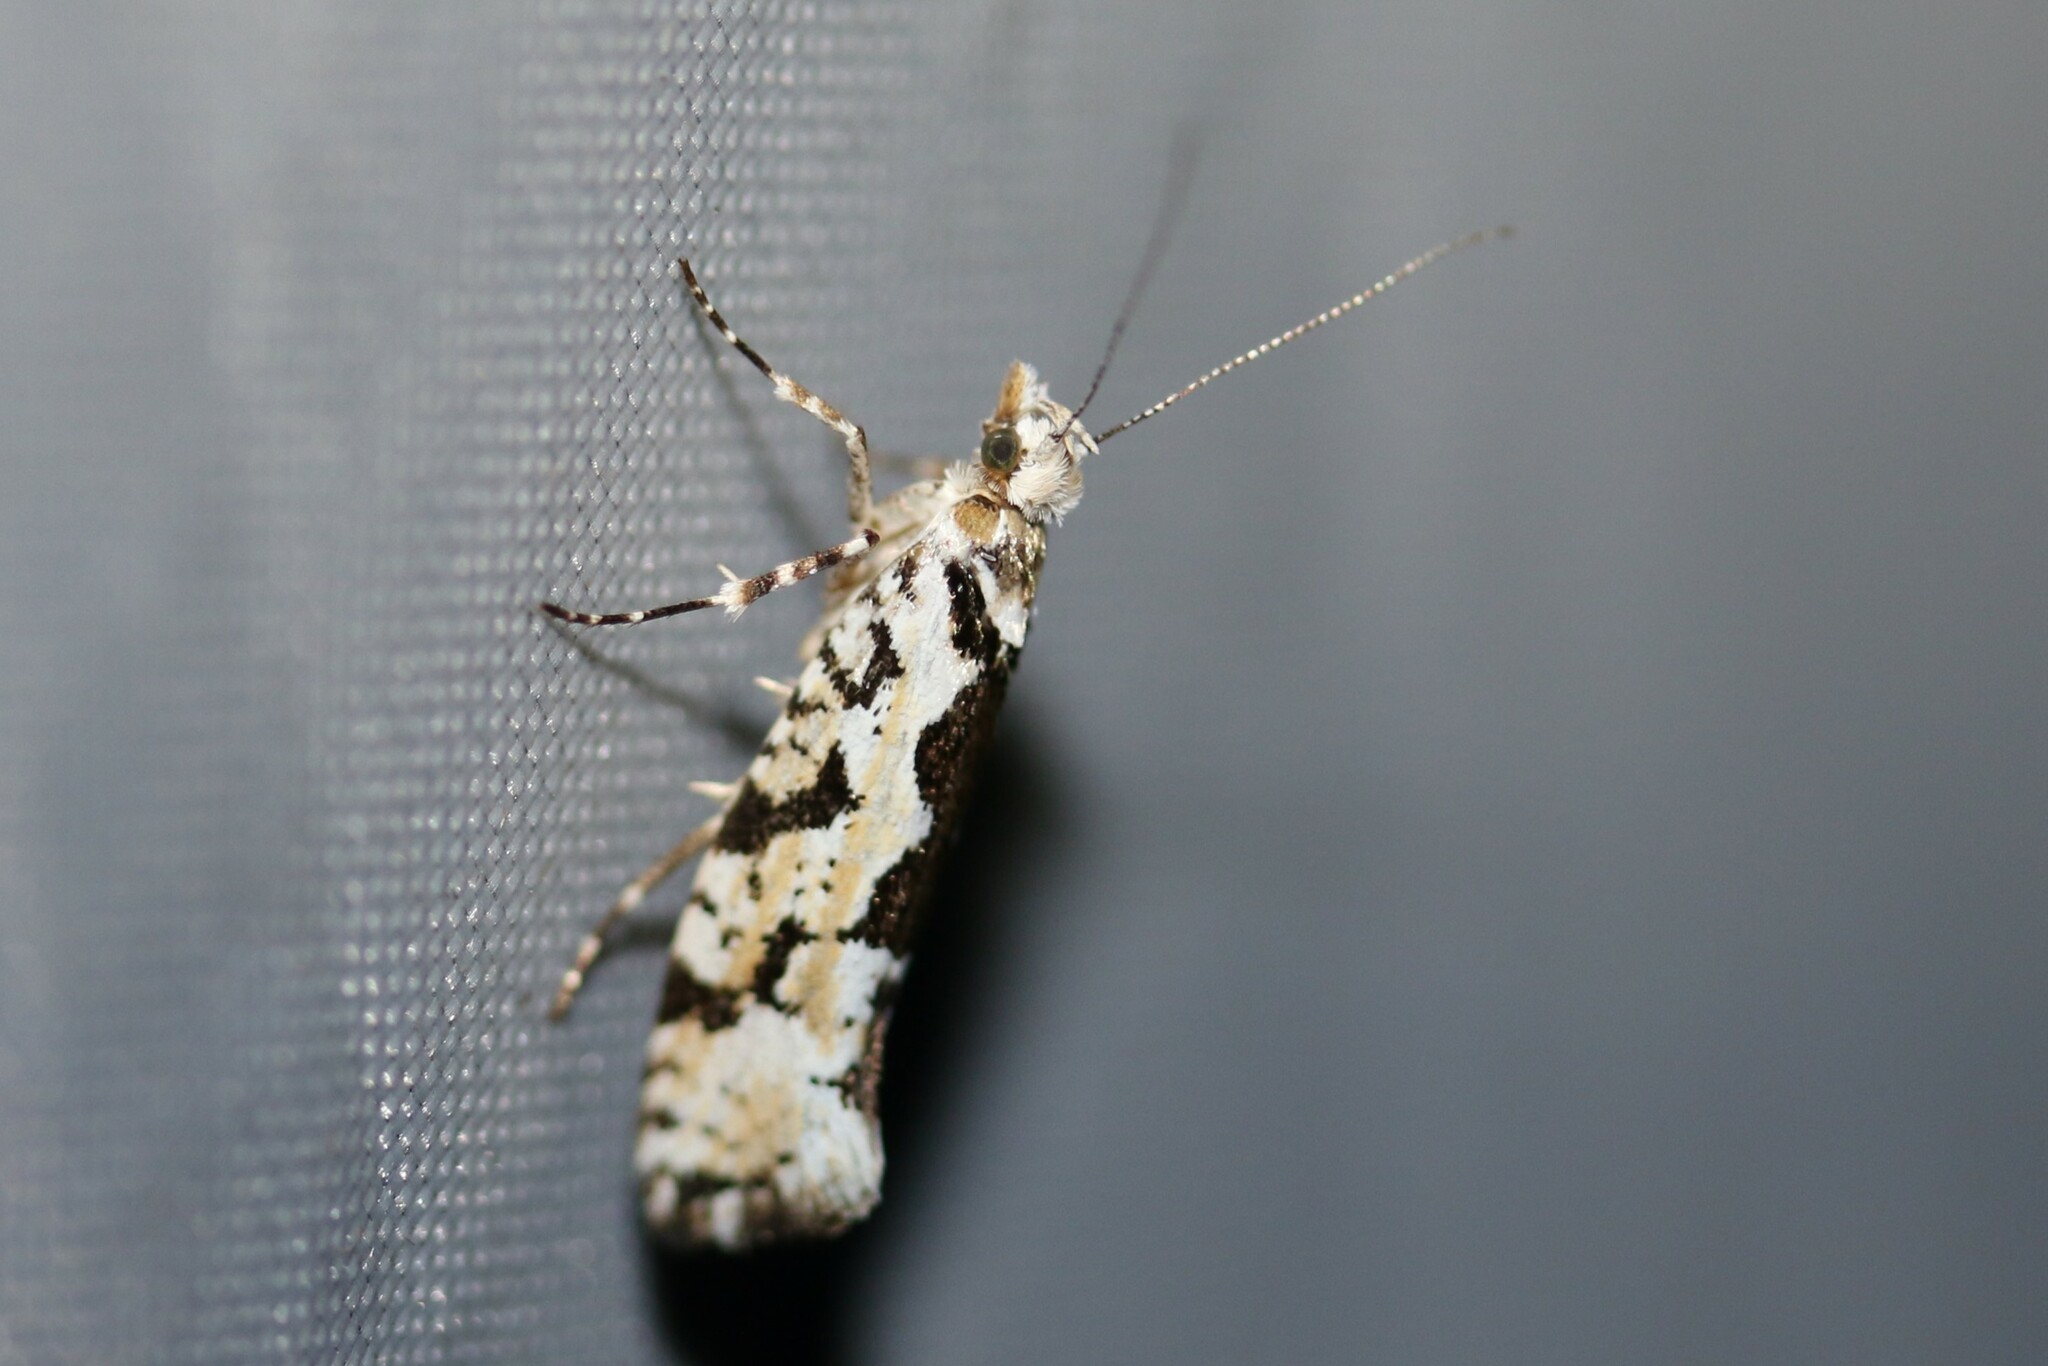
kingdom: Animalia
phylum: Arthropoda
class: Insecta
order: Lepidoptera
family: Plutellidae
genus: Ypsolophus
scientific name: Ypsolophus sequella
